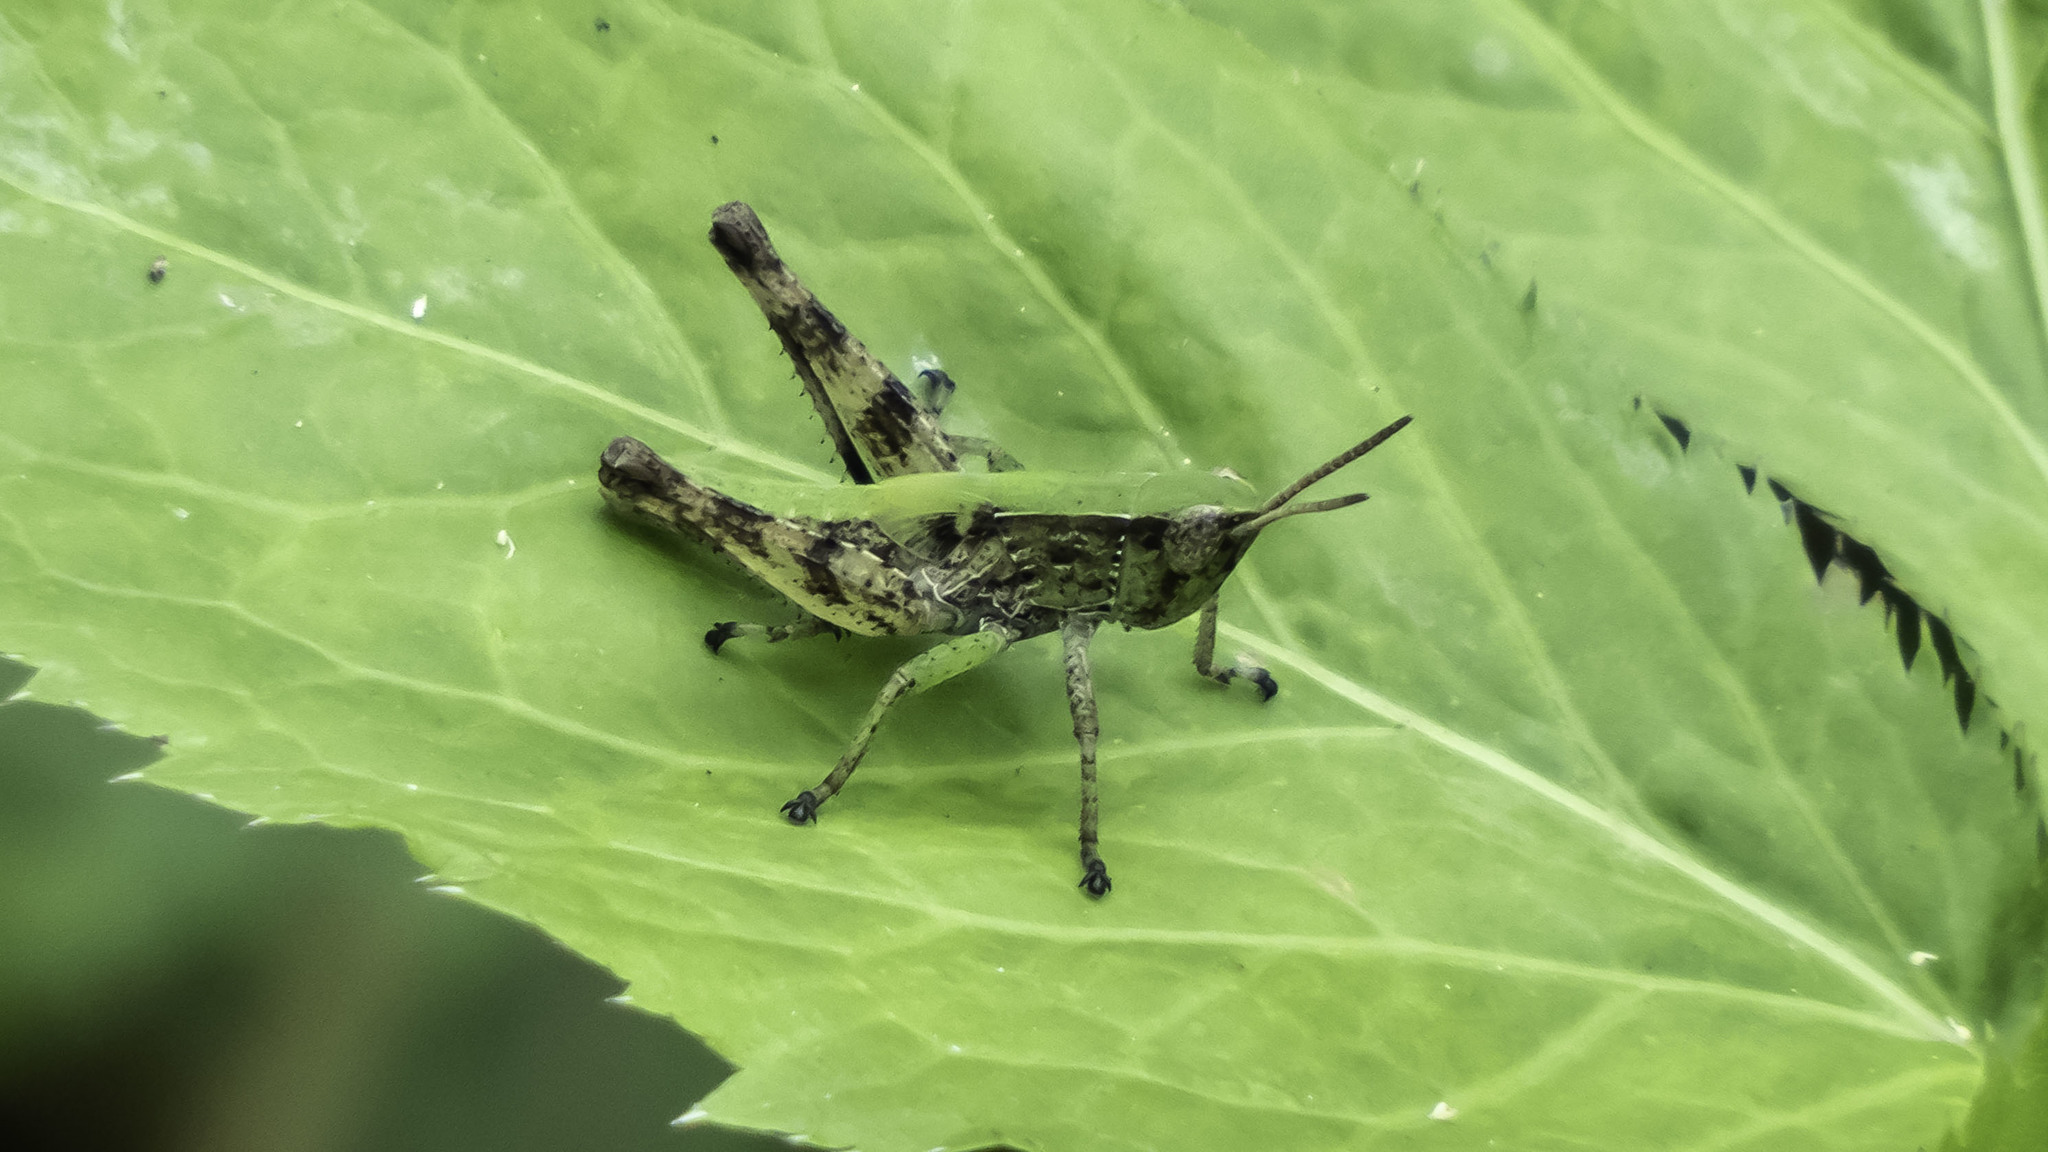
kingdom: Animalia
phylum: Arthropoda
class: Insecta
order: Orthoptera
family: Acrididae
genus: Dichromorpha
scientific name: Dichromorpha viridis
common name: Short-winged green grasshopper
